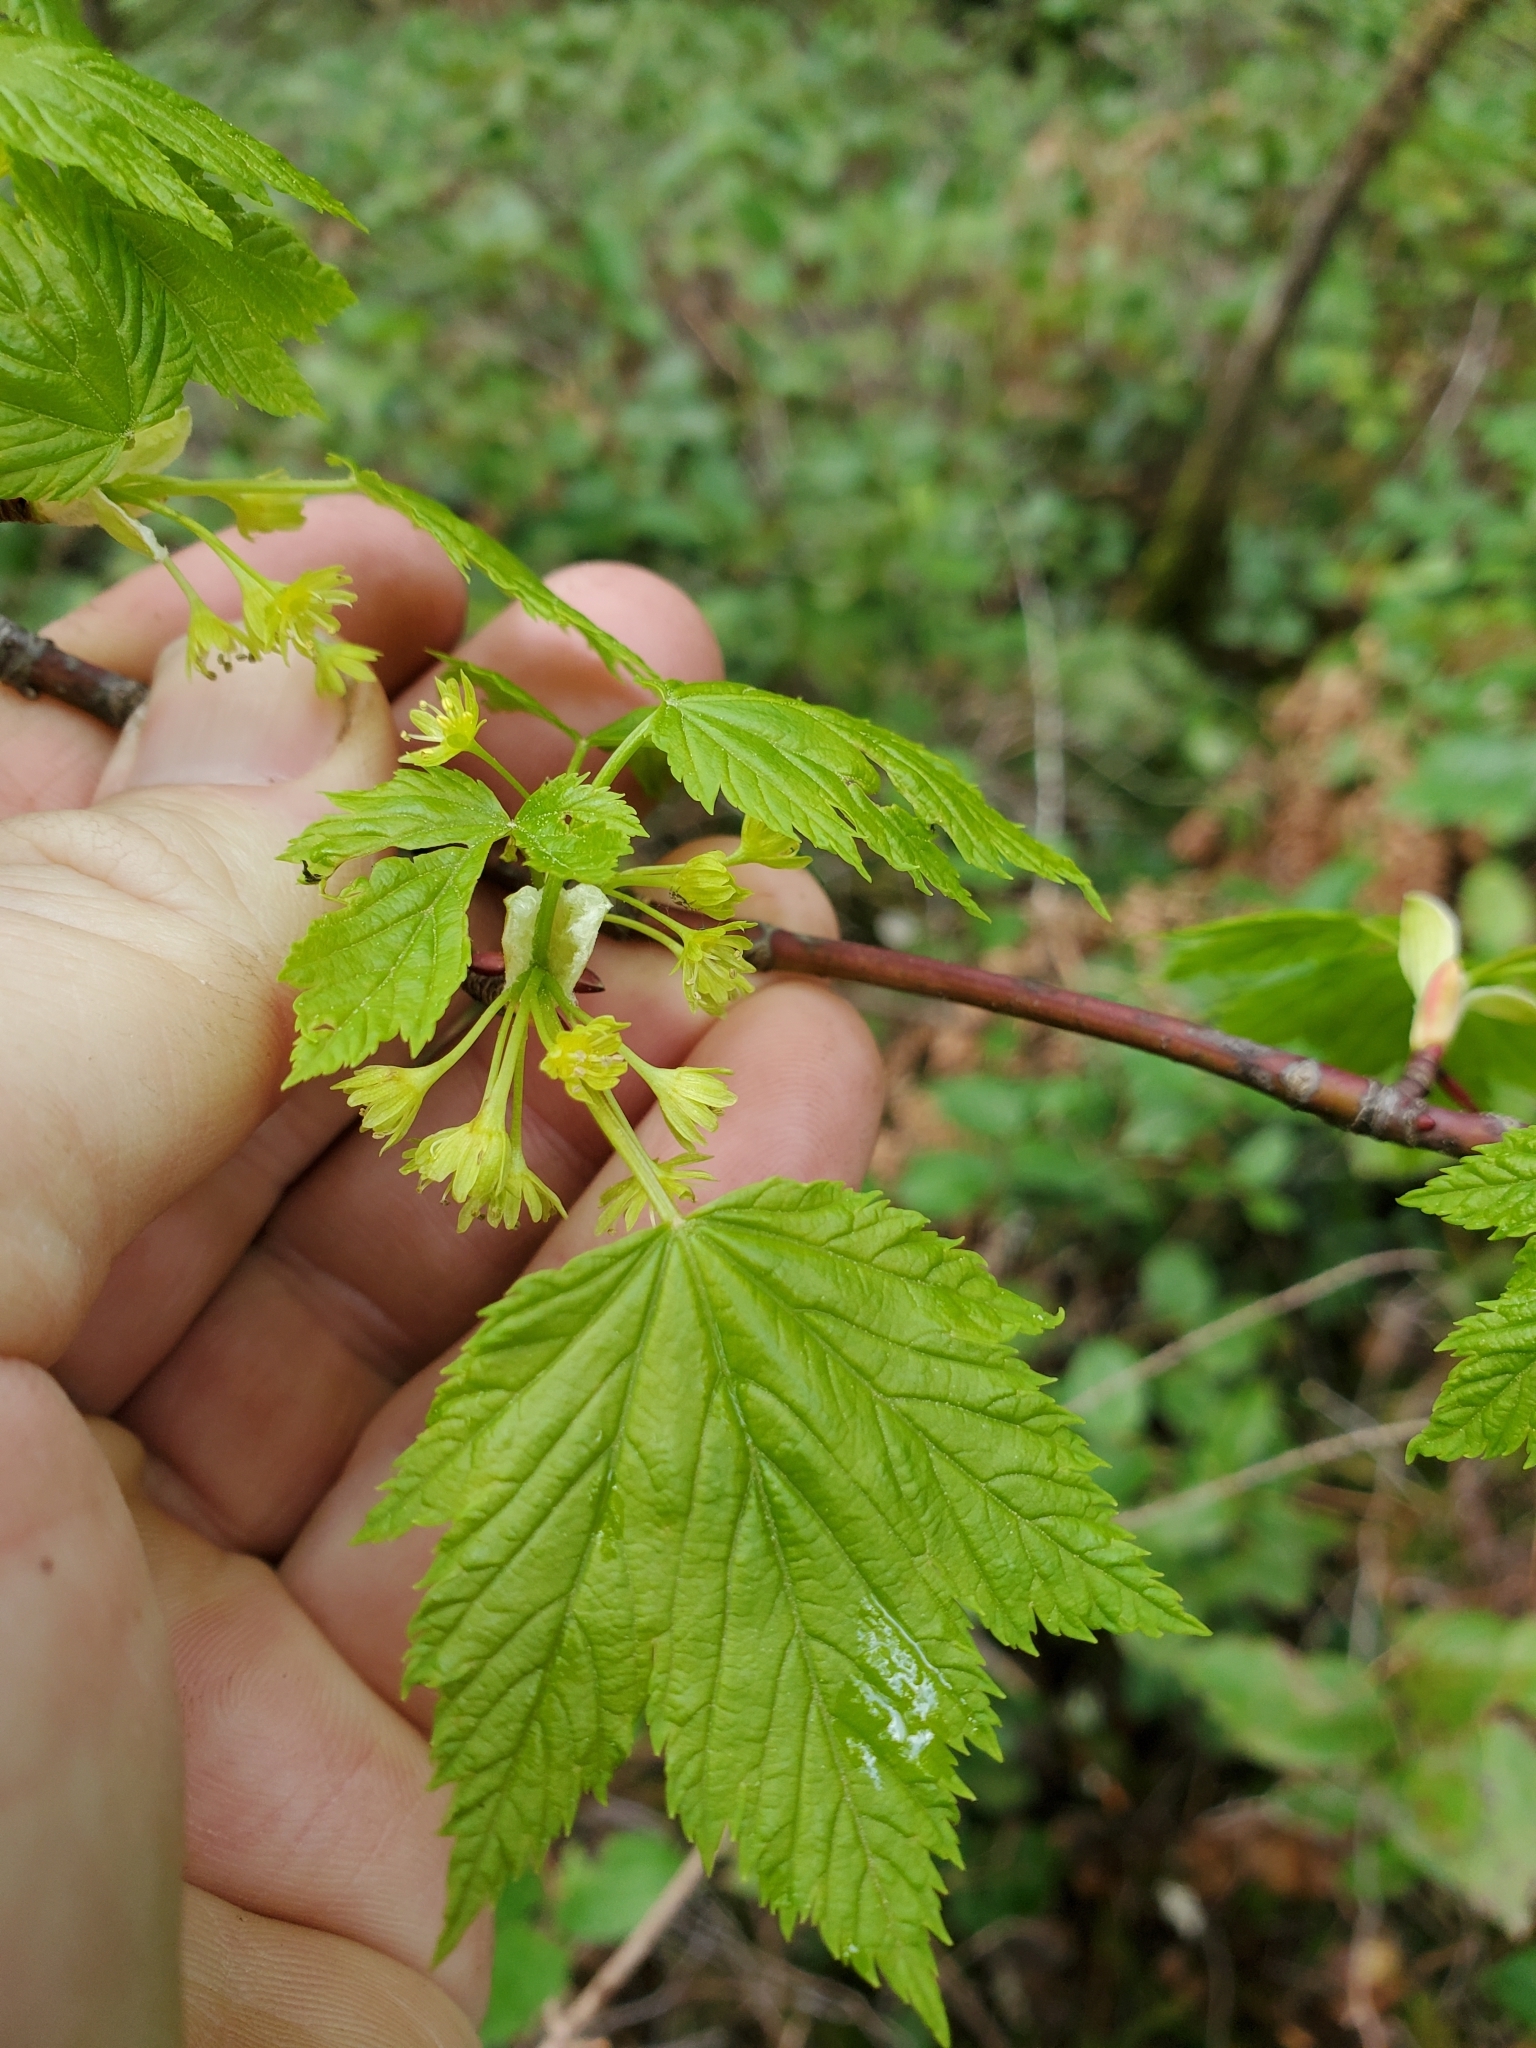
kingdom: Plantae
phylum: Tracheophyta
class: Magnoliopsida
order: Sapindales
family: Sapindaceae
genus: Acer
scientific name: Acer glabrum
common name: Rocky mountain maple
